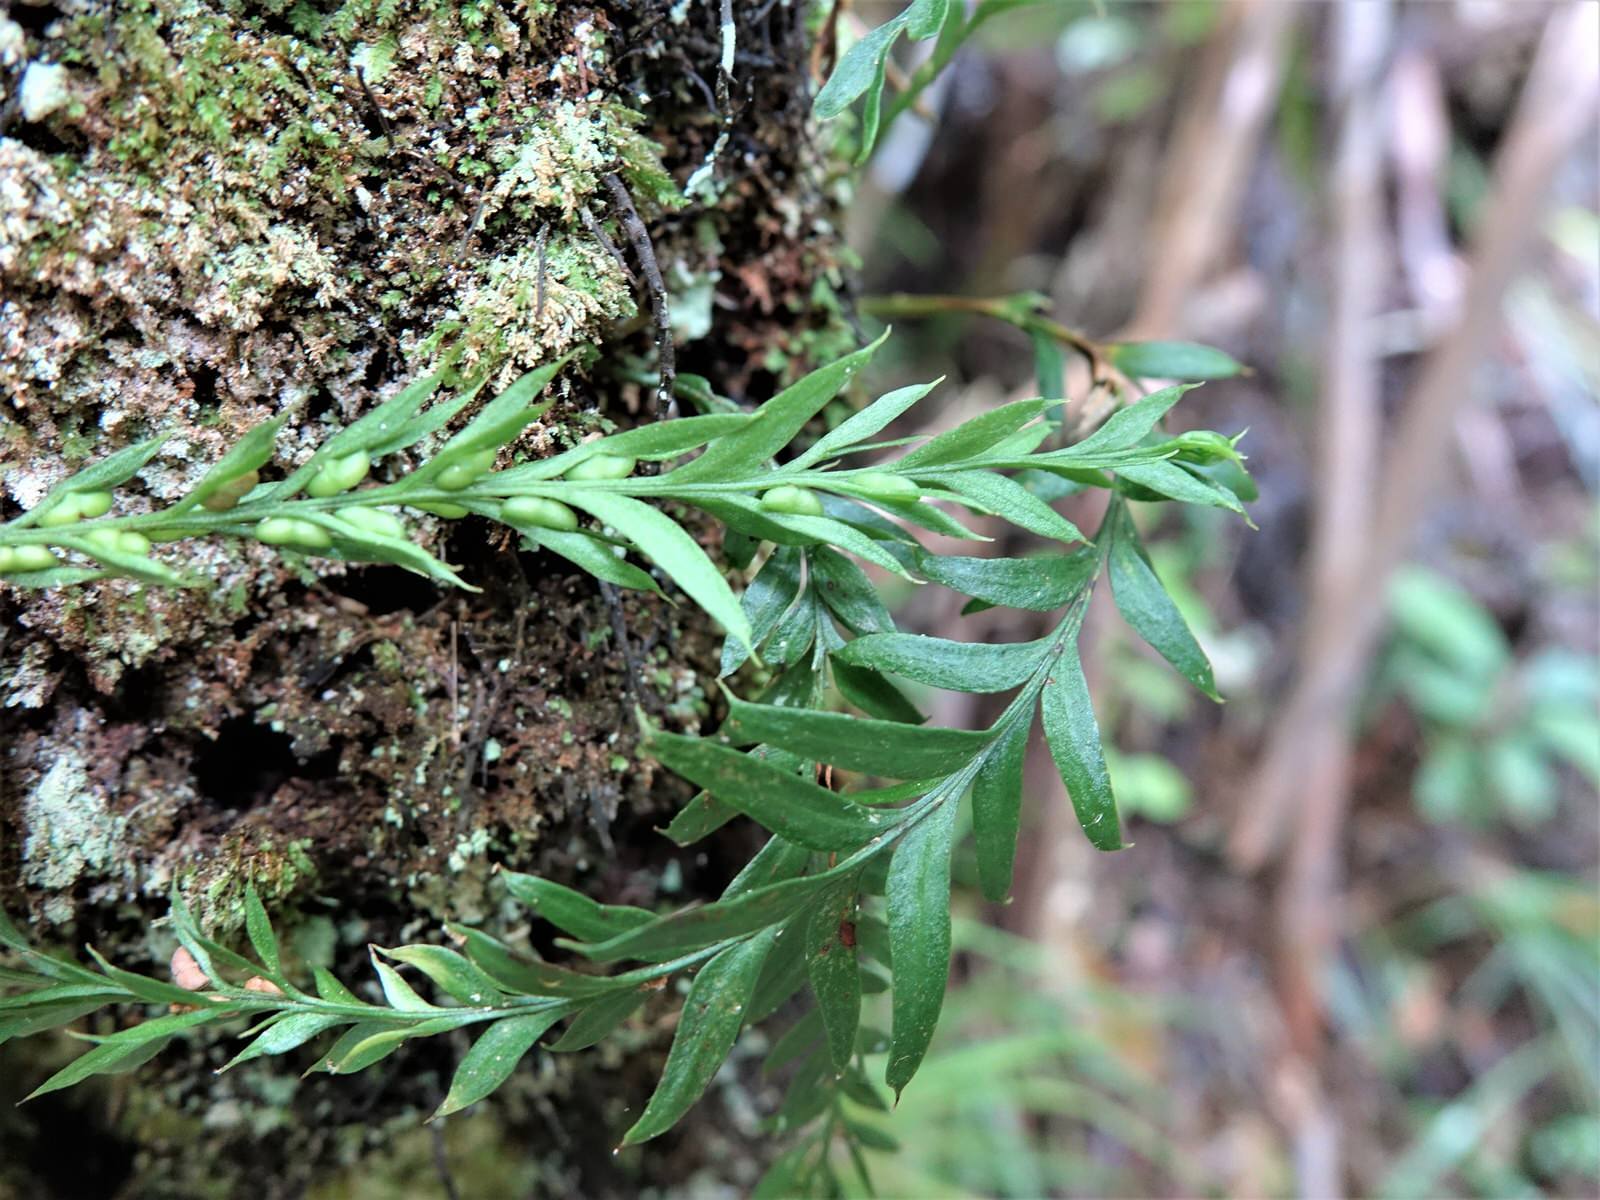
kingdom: Plantae
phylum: Tracheophyta
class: Polypodiopsida
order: Psilotales
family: Psilotaceae
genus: Tmesipteris
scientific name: Tmesipteris elongata
